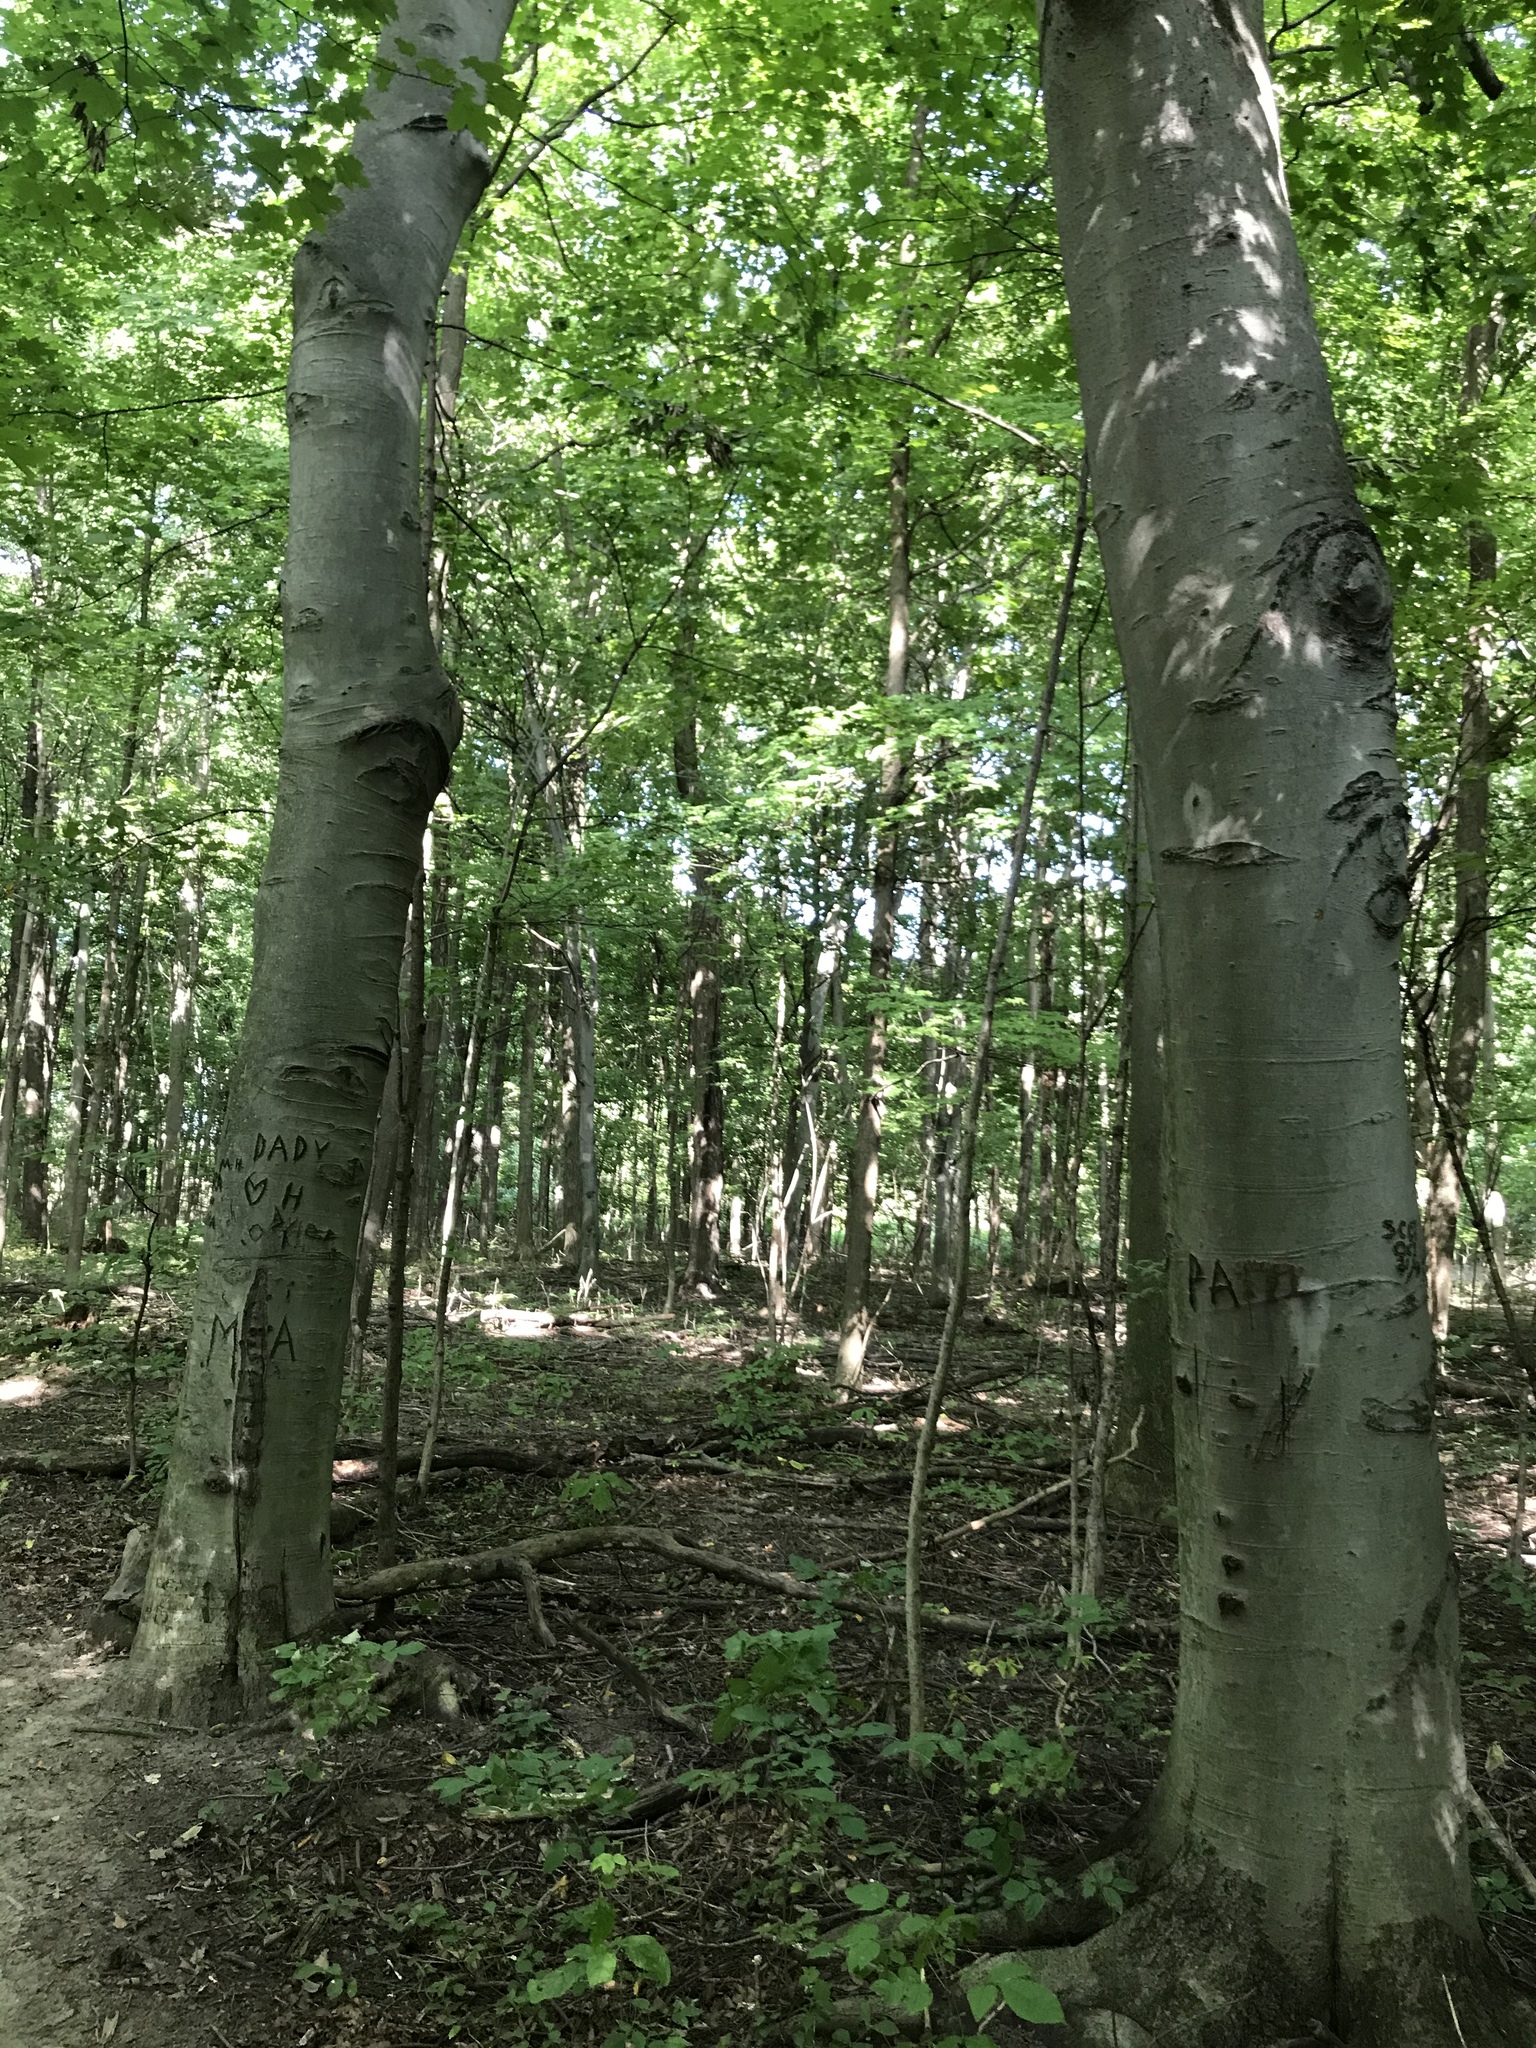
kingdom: Plantae
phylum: Tracheophyta
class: Magnoliopsida
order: Fagales
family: Fagaceae
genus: Fagus
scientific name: Fagus grandifolia
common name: American beech
